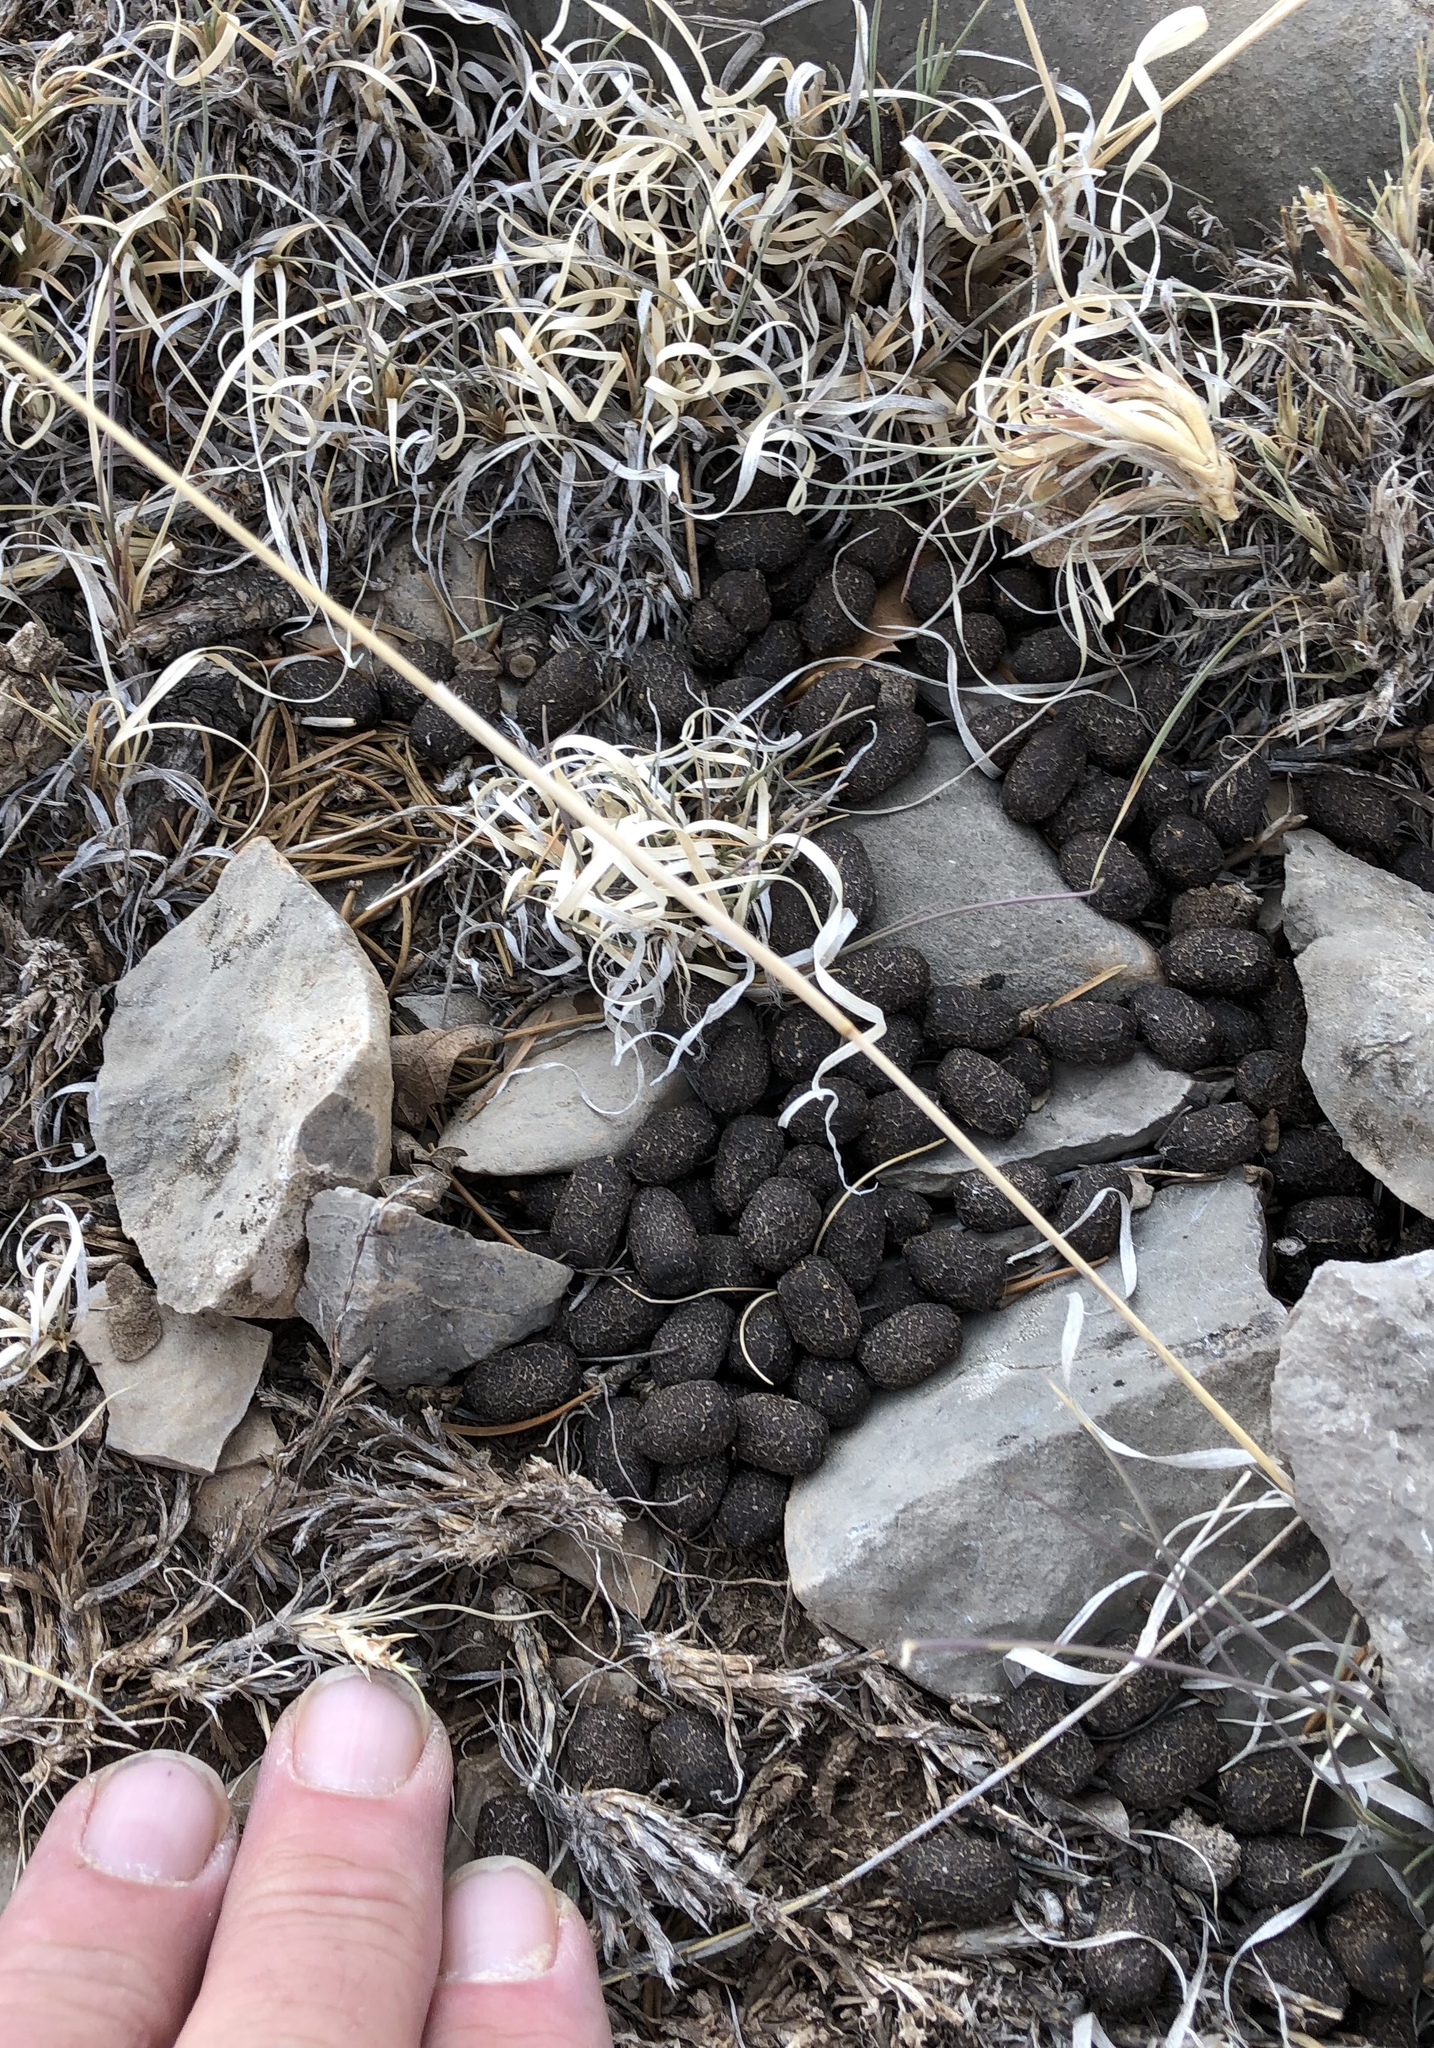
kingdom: Animalia
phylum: Chordata
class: Mammalia
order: Artiodactyla
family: Cervidae
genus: Odocoileus
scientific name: Odocoileus hemionus
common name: Mule deer
